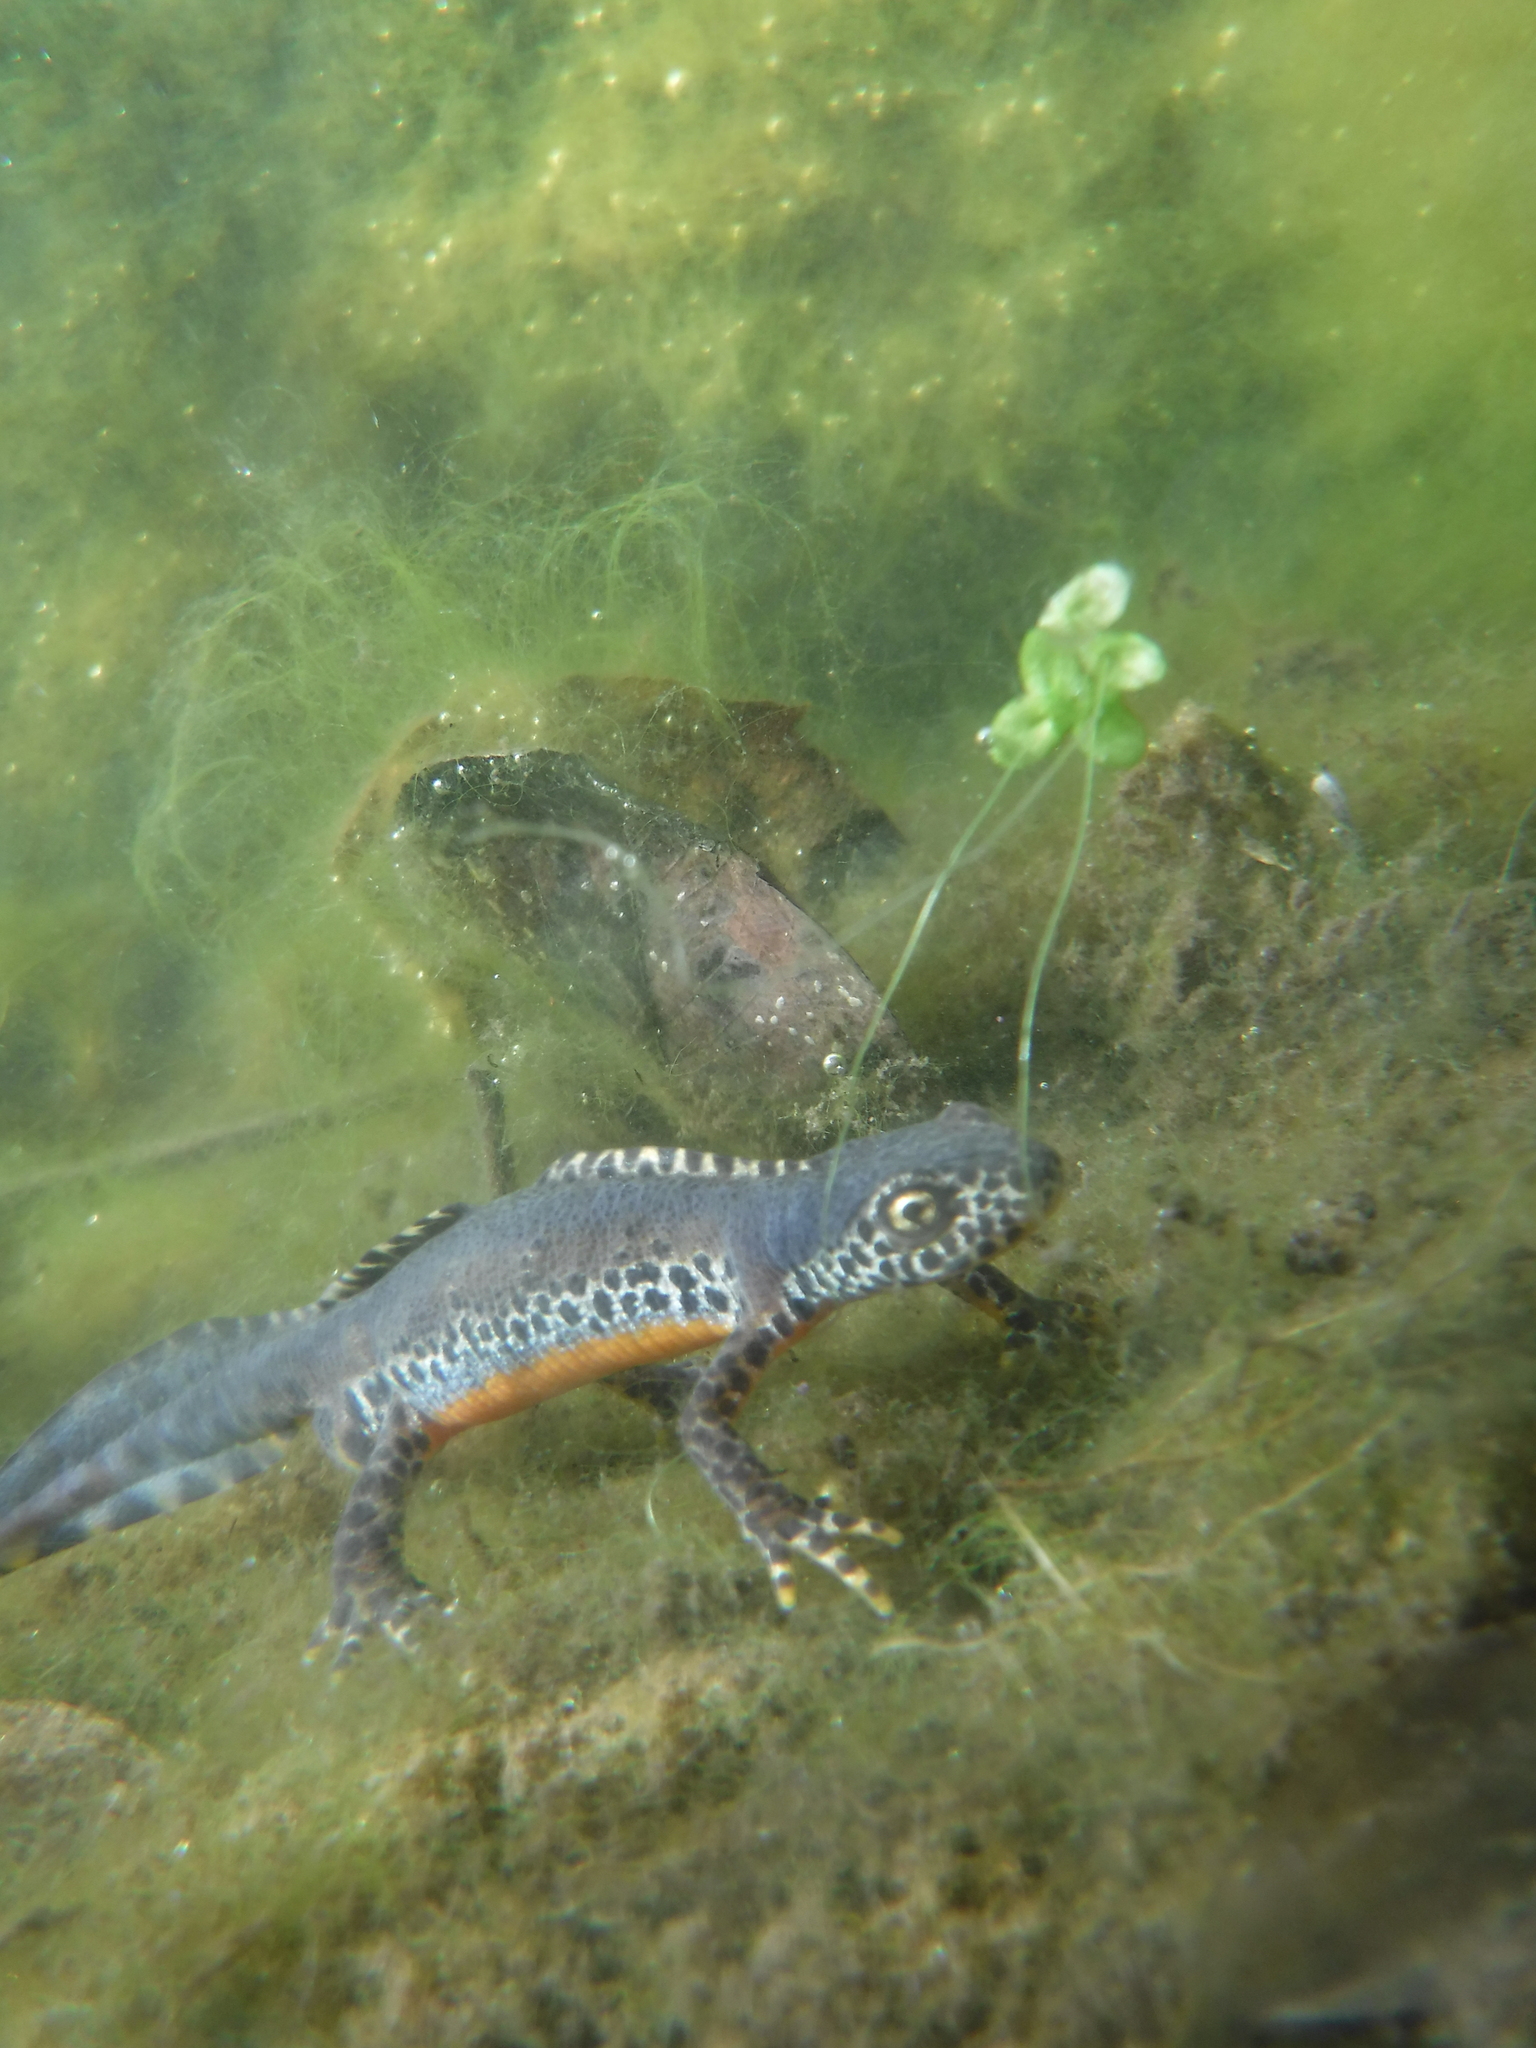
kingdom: Animalia
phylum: Chordata
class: Amphibia
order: Caudata
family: Salamandridae
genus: Ichthyosaura
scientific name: Ichthyosaura alpestris
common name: Alpine newt
